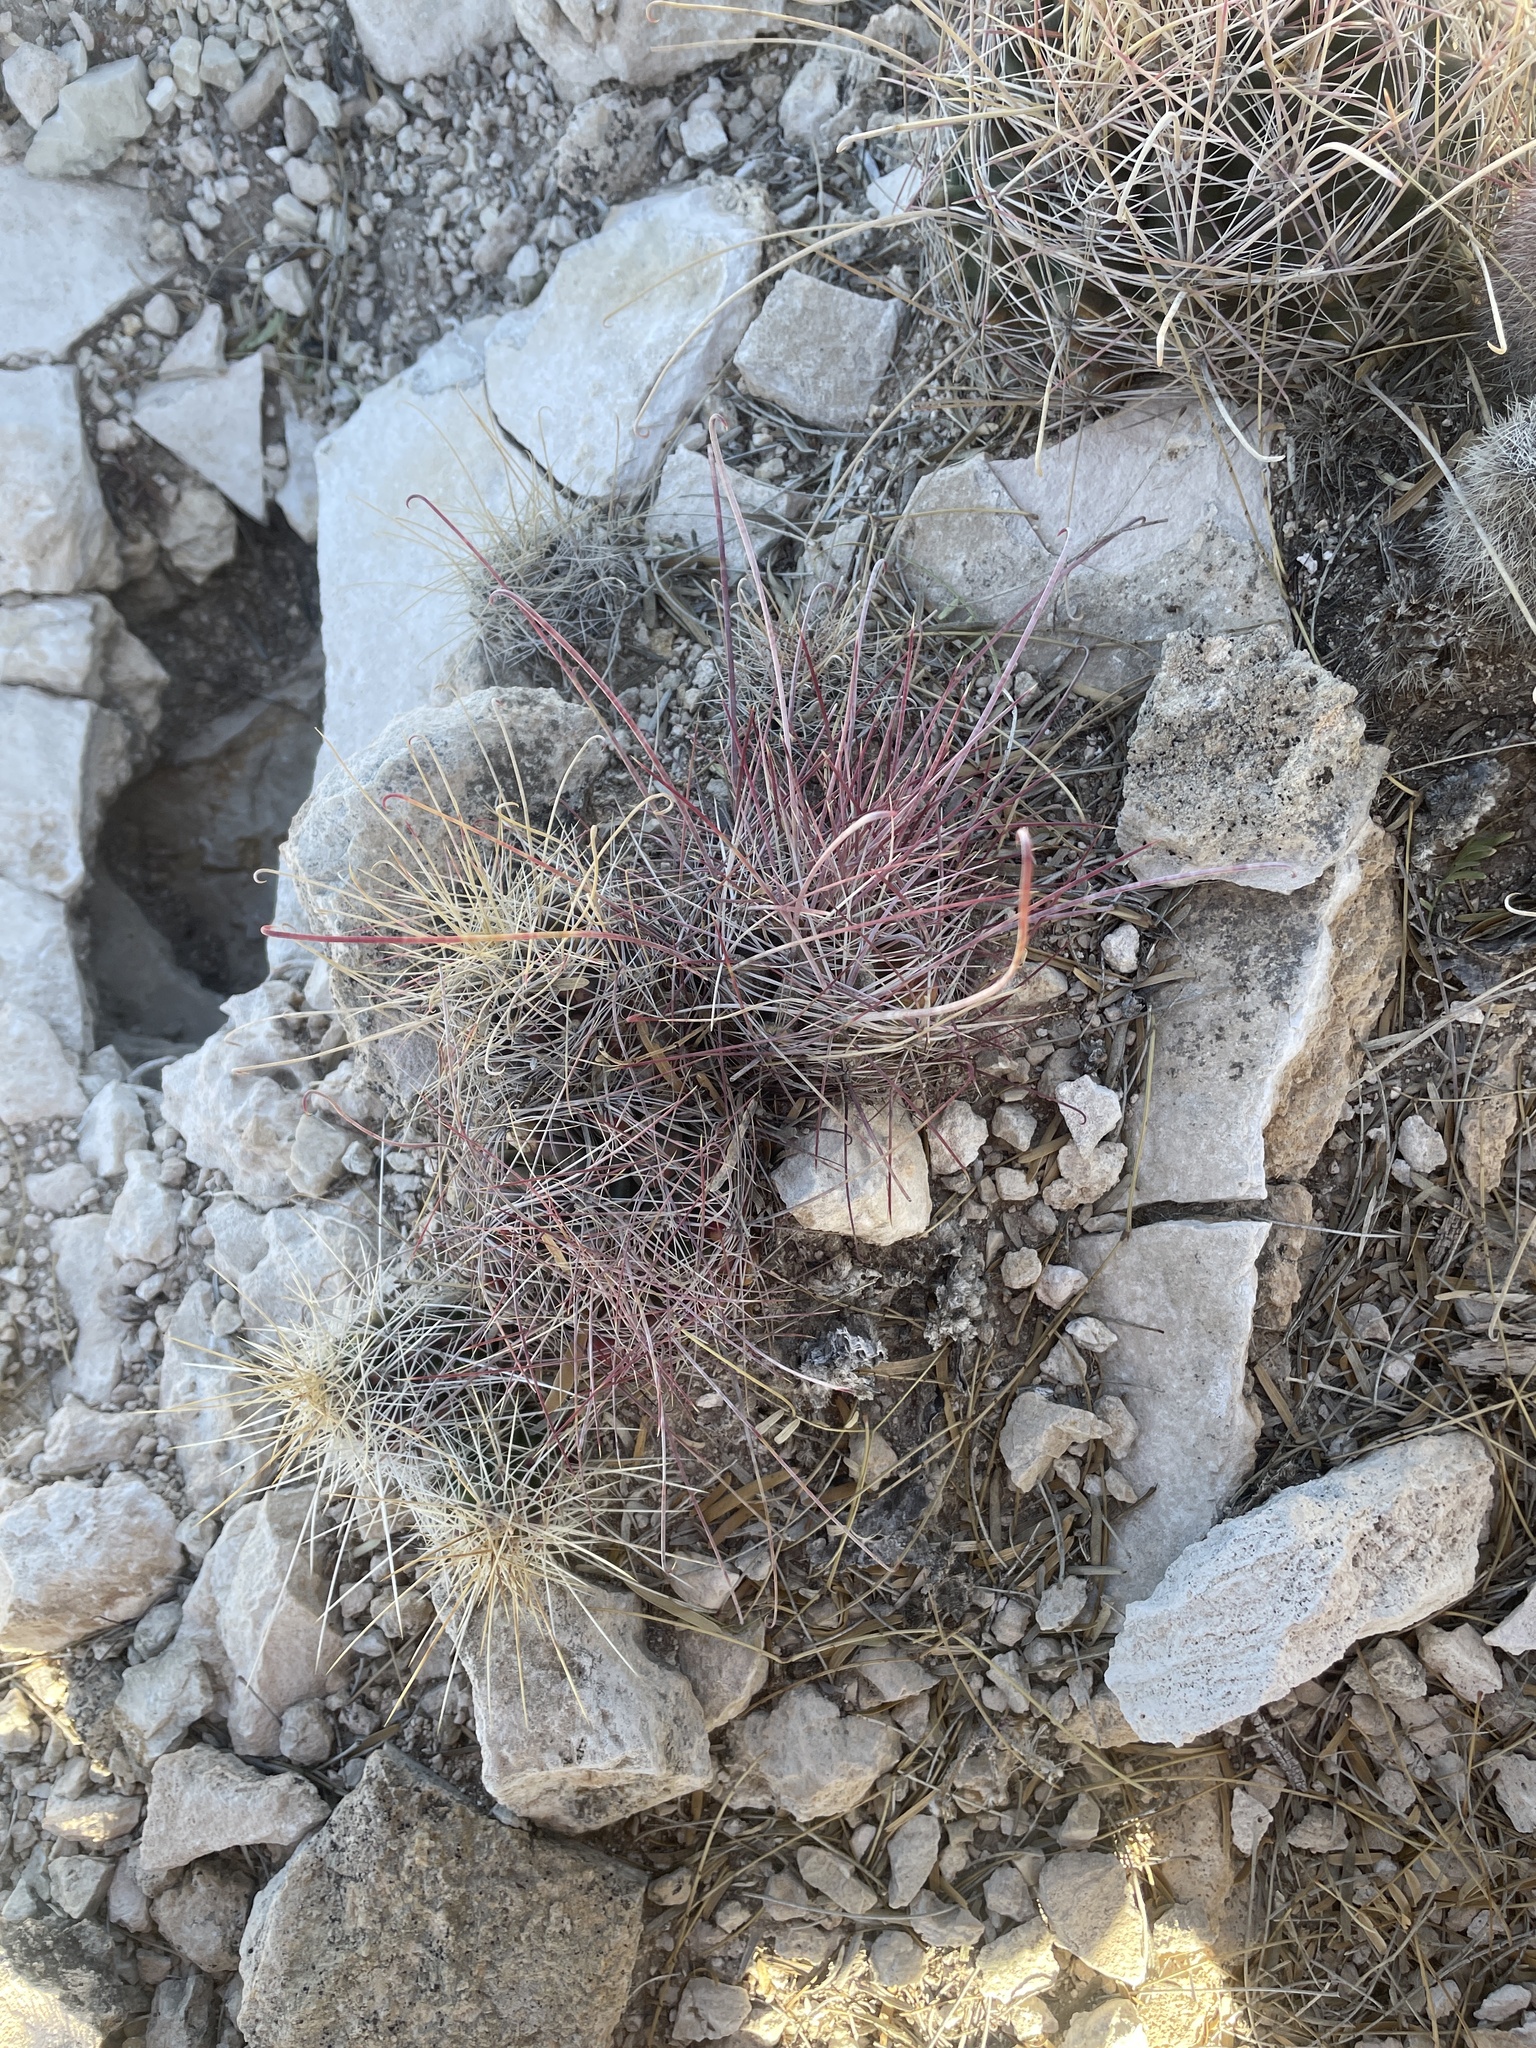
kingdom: Plantae
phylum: Tracheophyta
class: Magnoliopsida
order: Caryophyllales
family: Cactaceae
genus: Bisnaga
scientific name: Bisnaga hamatacantha
